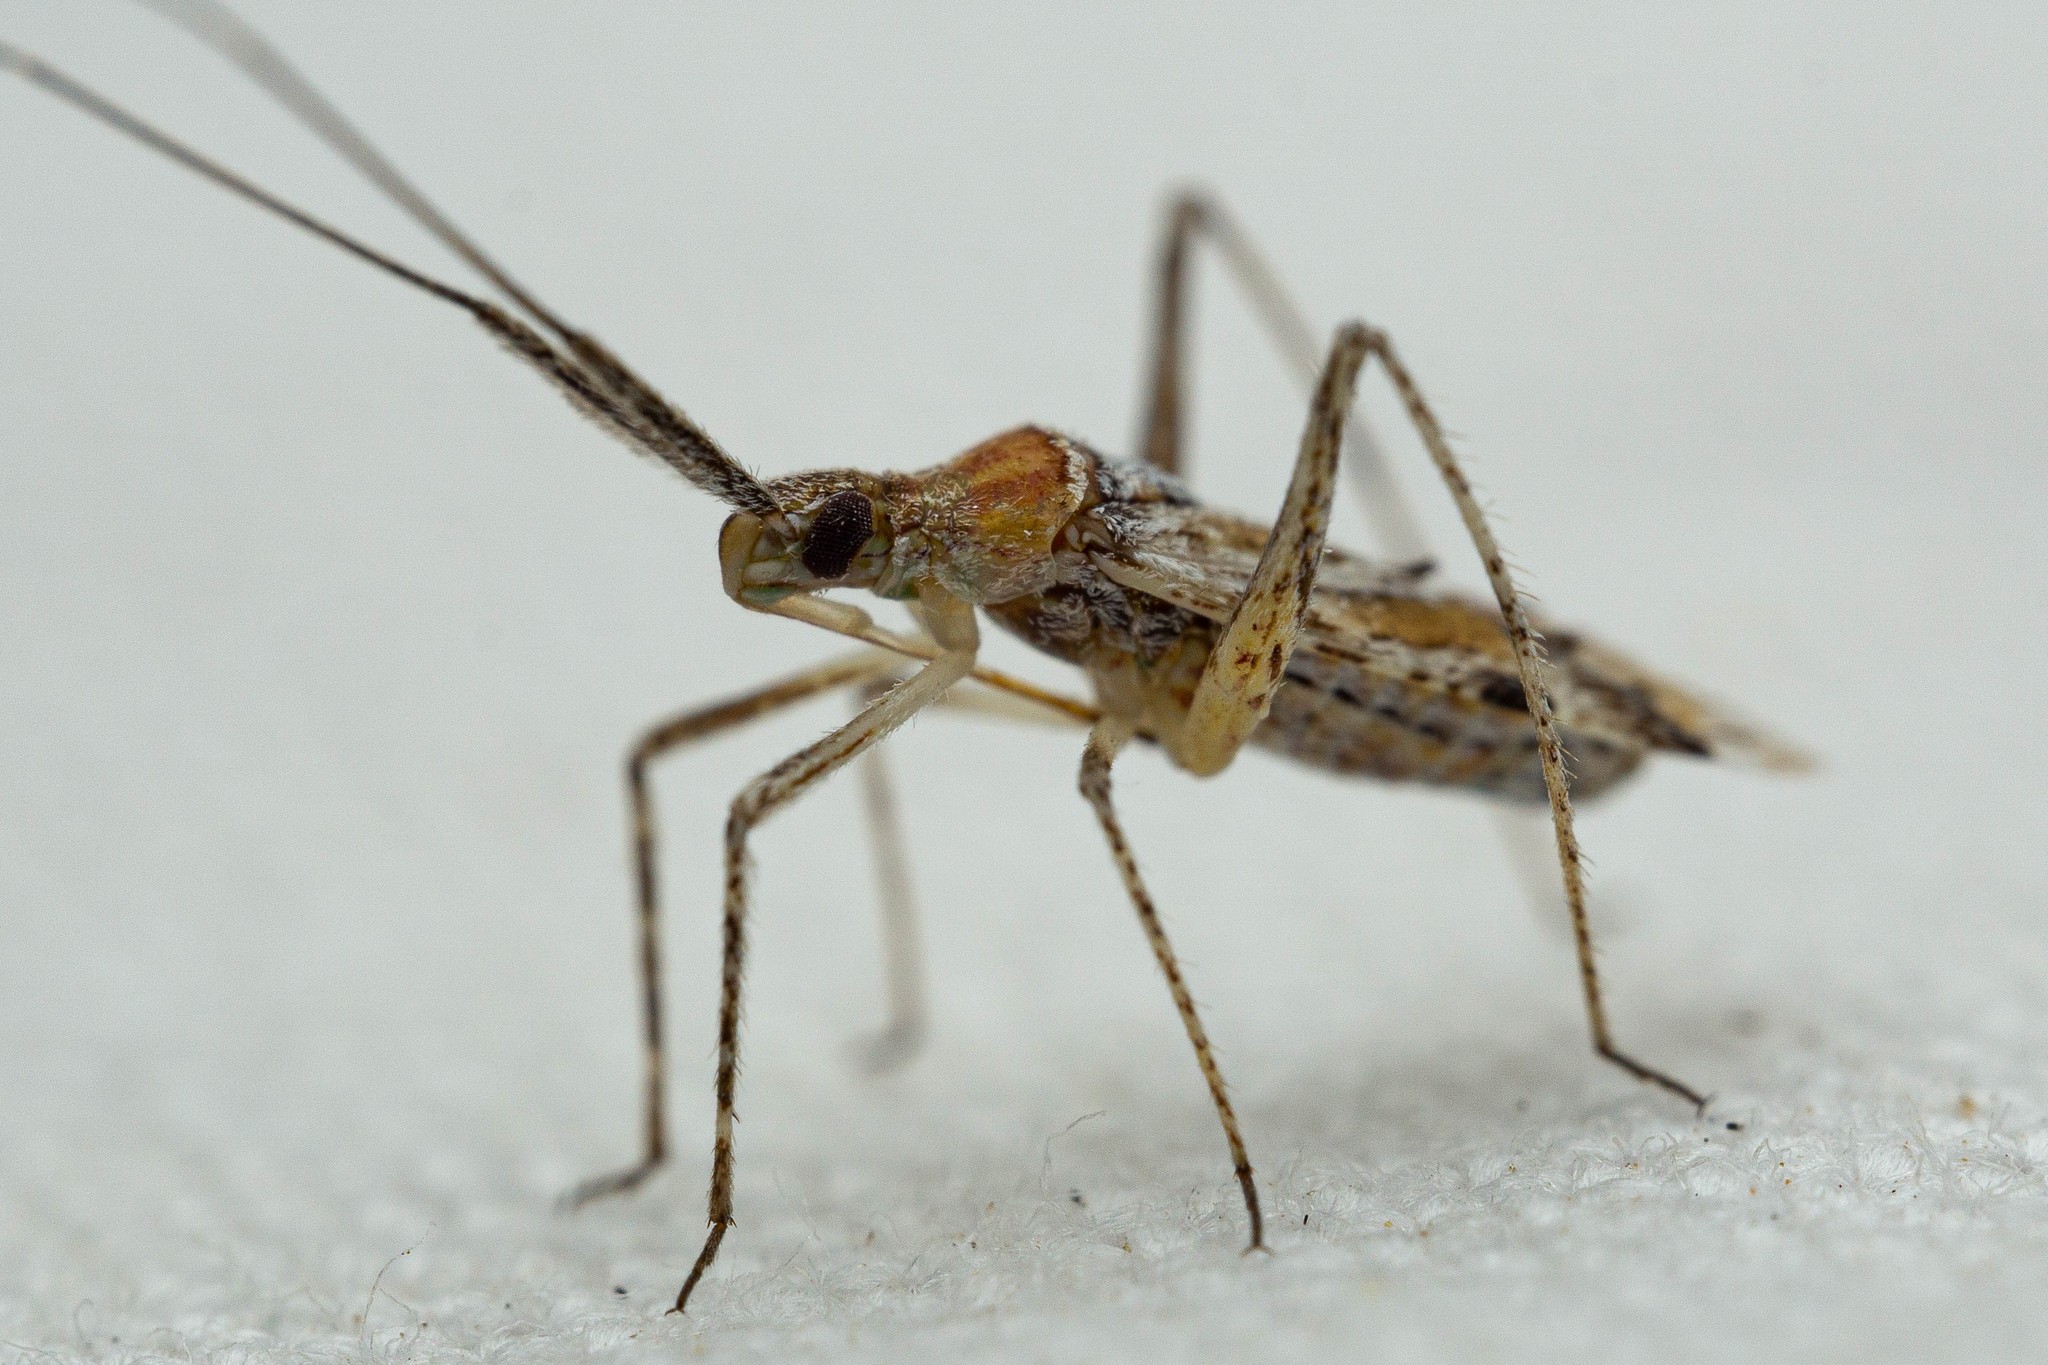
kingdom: Animalia
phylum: Arthropoda
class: Insecta
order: Hemiptera
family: Miridae
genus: Phytocoris
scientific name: Phytocoris squamosus
